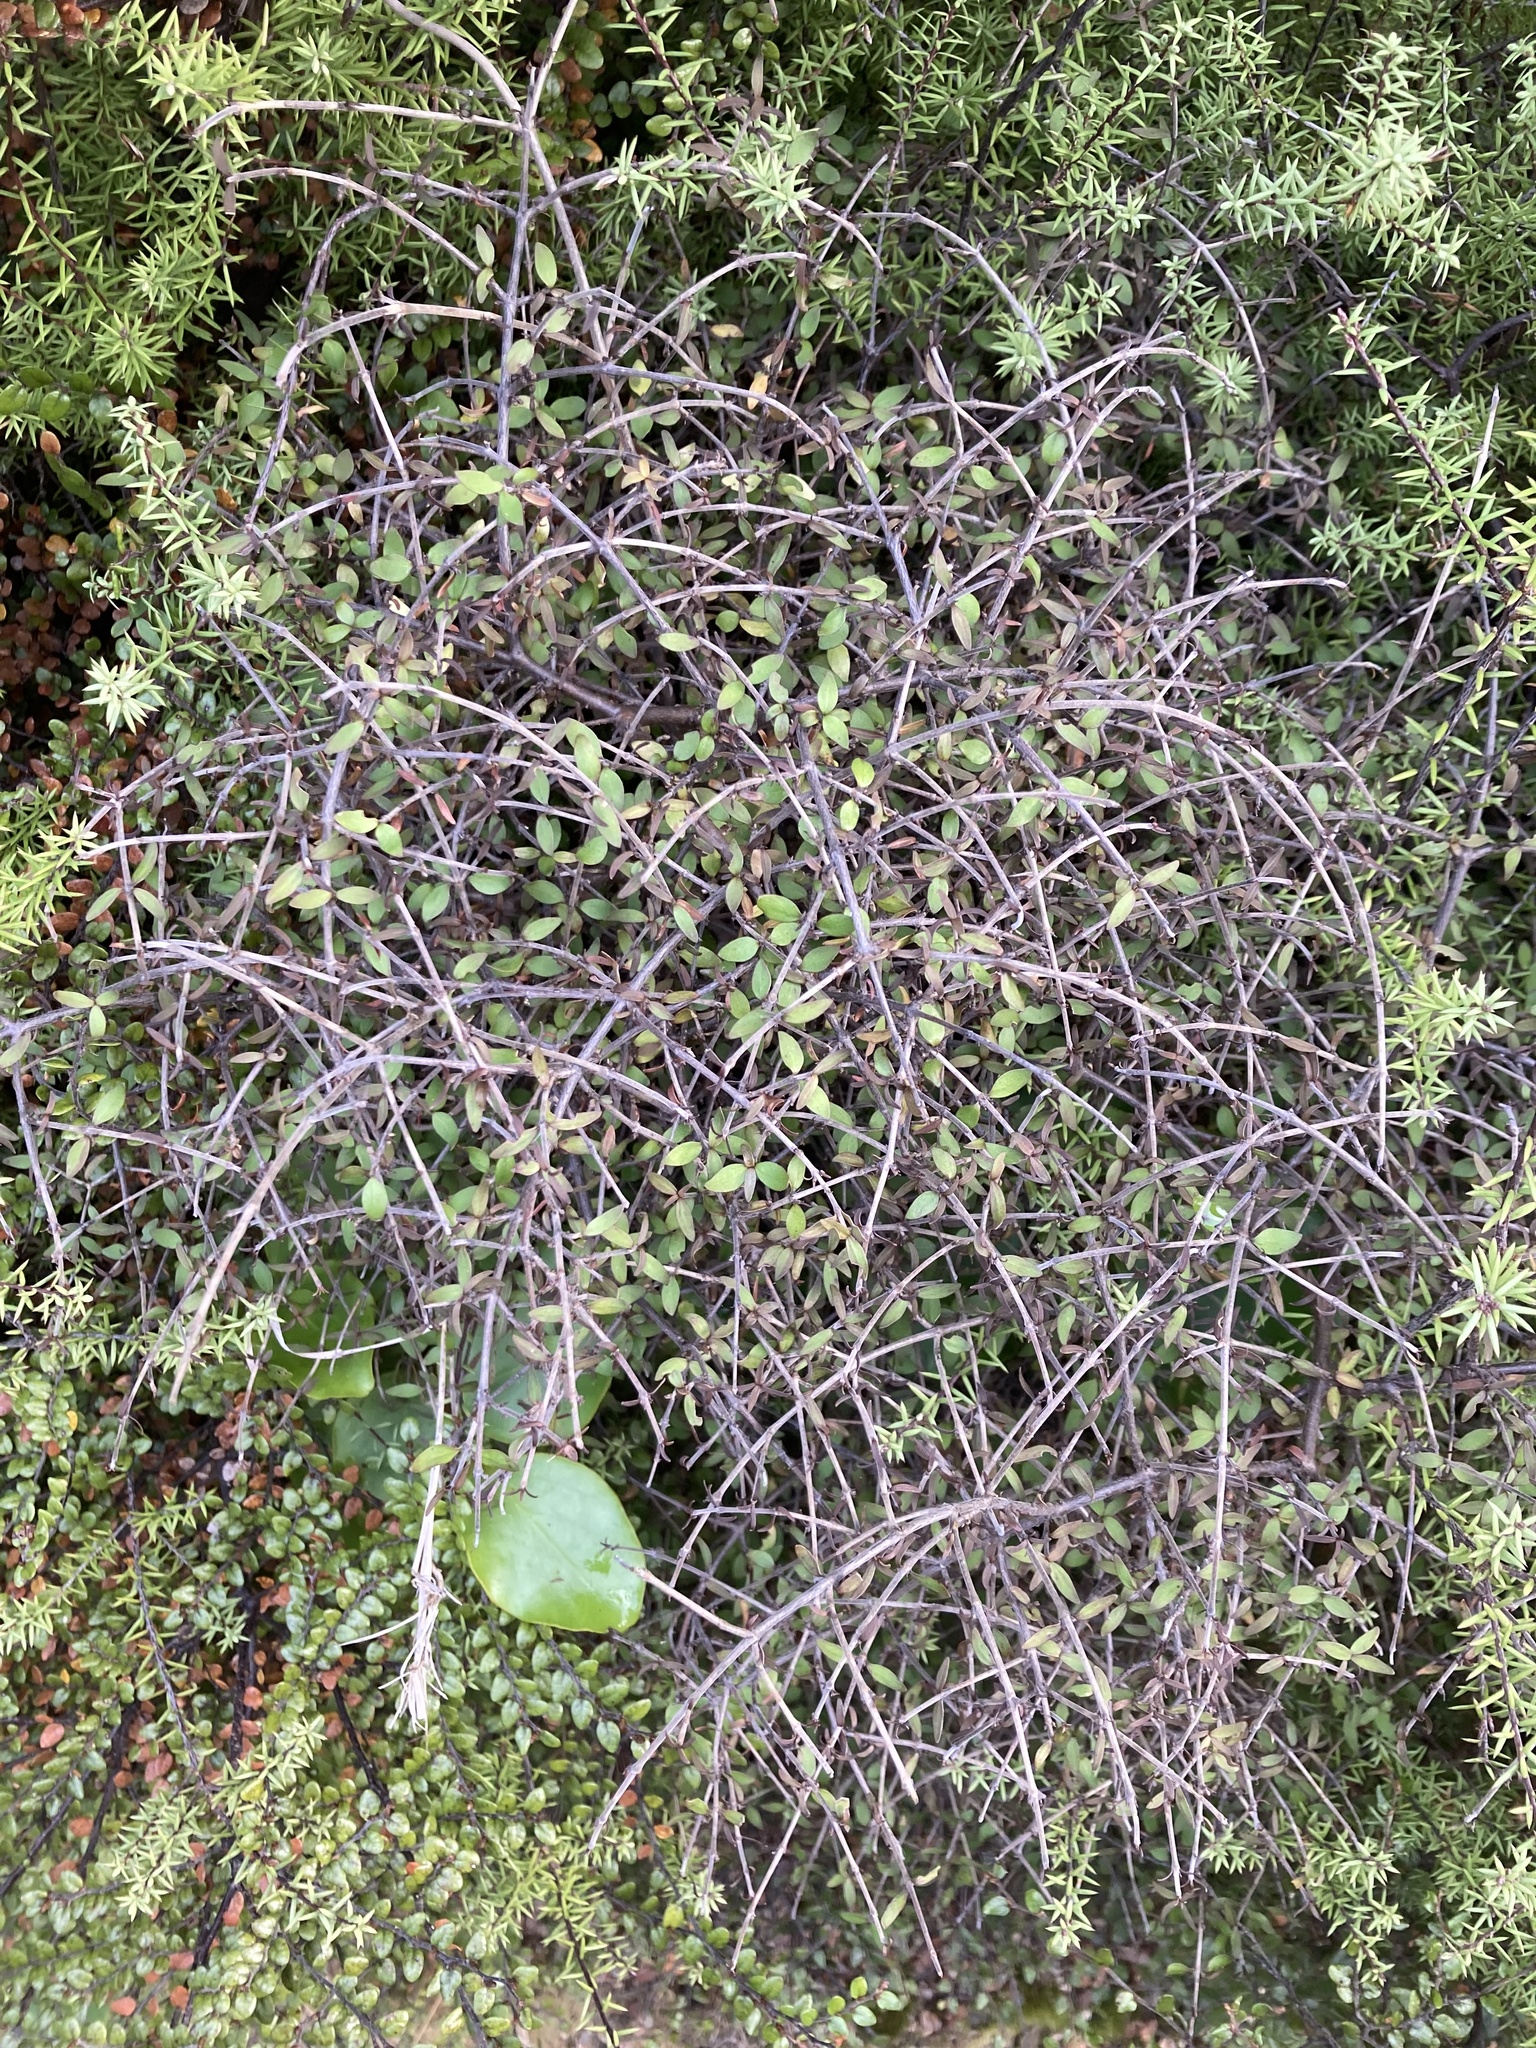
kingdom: Plantae
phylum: Tracheophyta
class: Magnoliopsida
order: Gentianales
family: Rubiaceae
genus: Coprosma
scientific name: Coprosma rhamnoides
